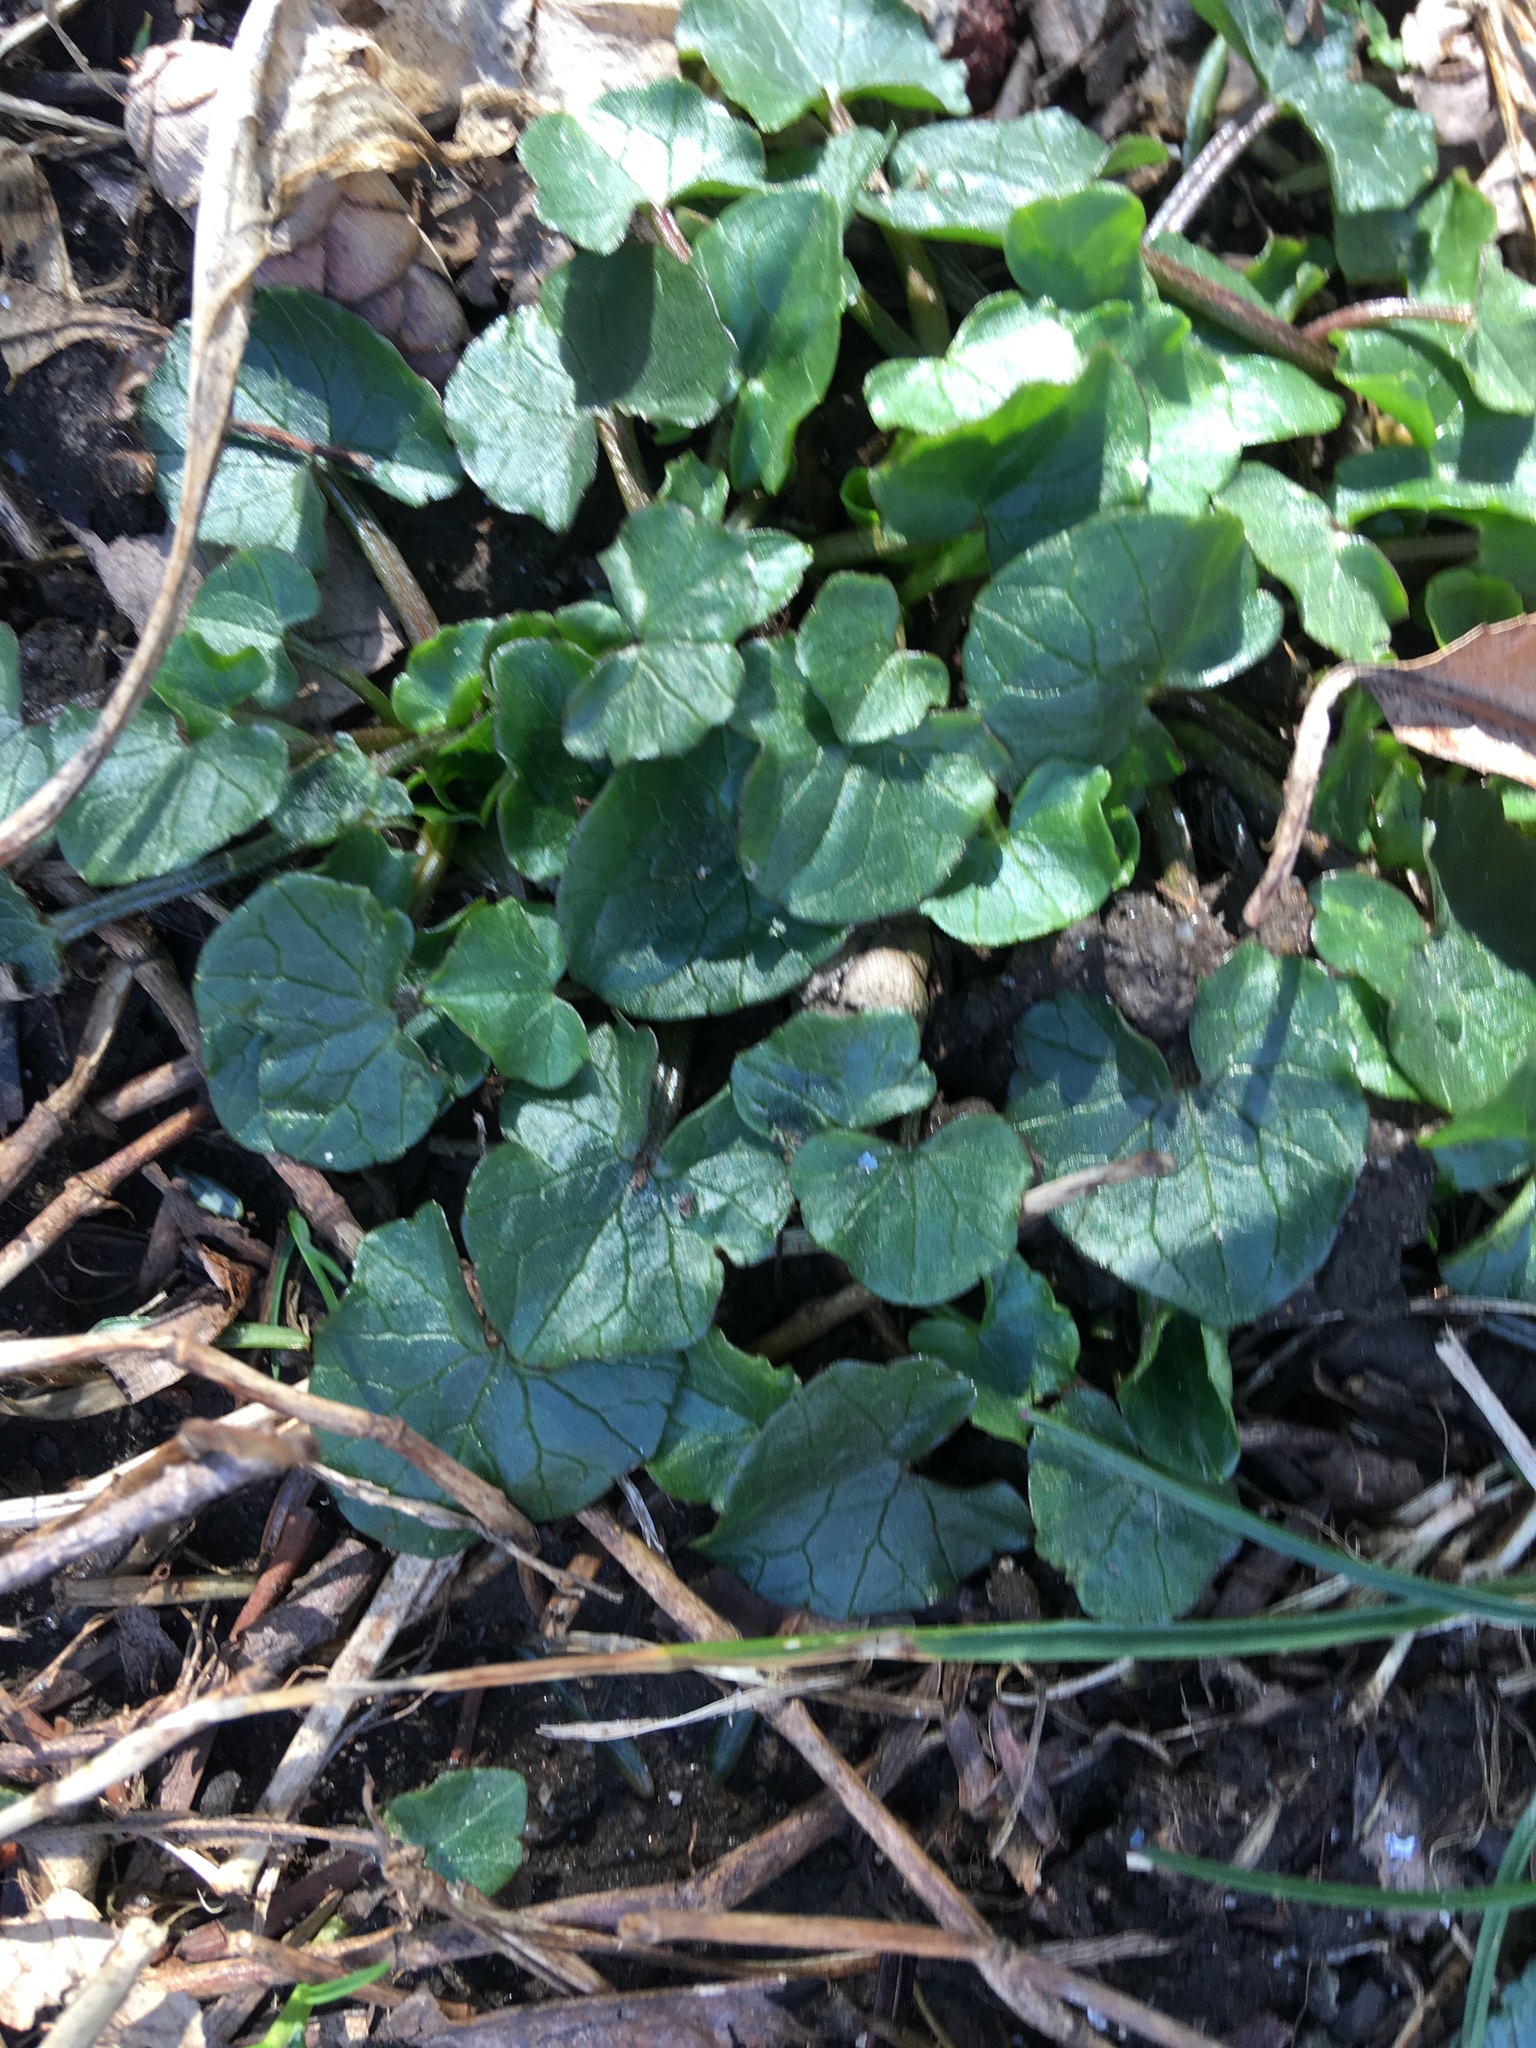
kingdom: Plantae
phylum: Tracheophyta
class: Magnoliopsida
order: Ranunculales
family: Ranunculaceae
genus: Ficaria
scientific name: Ficaria verna
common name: Lesser celandine
